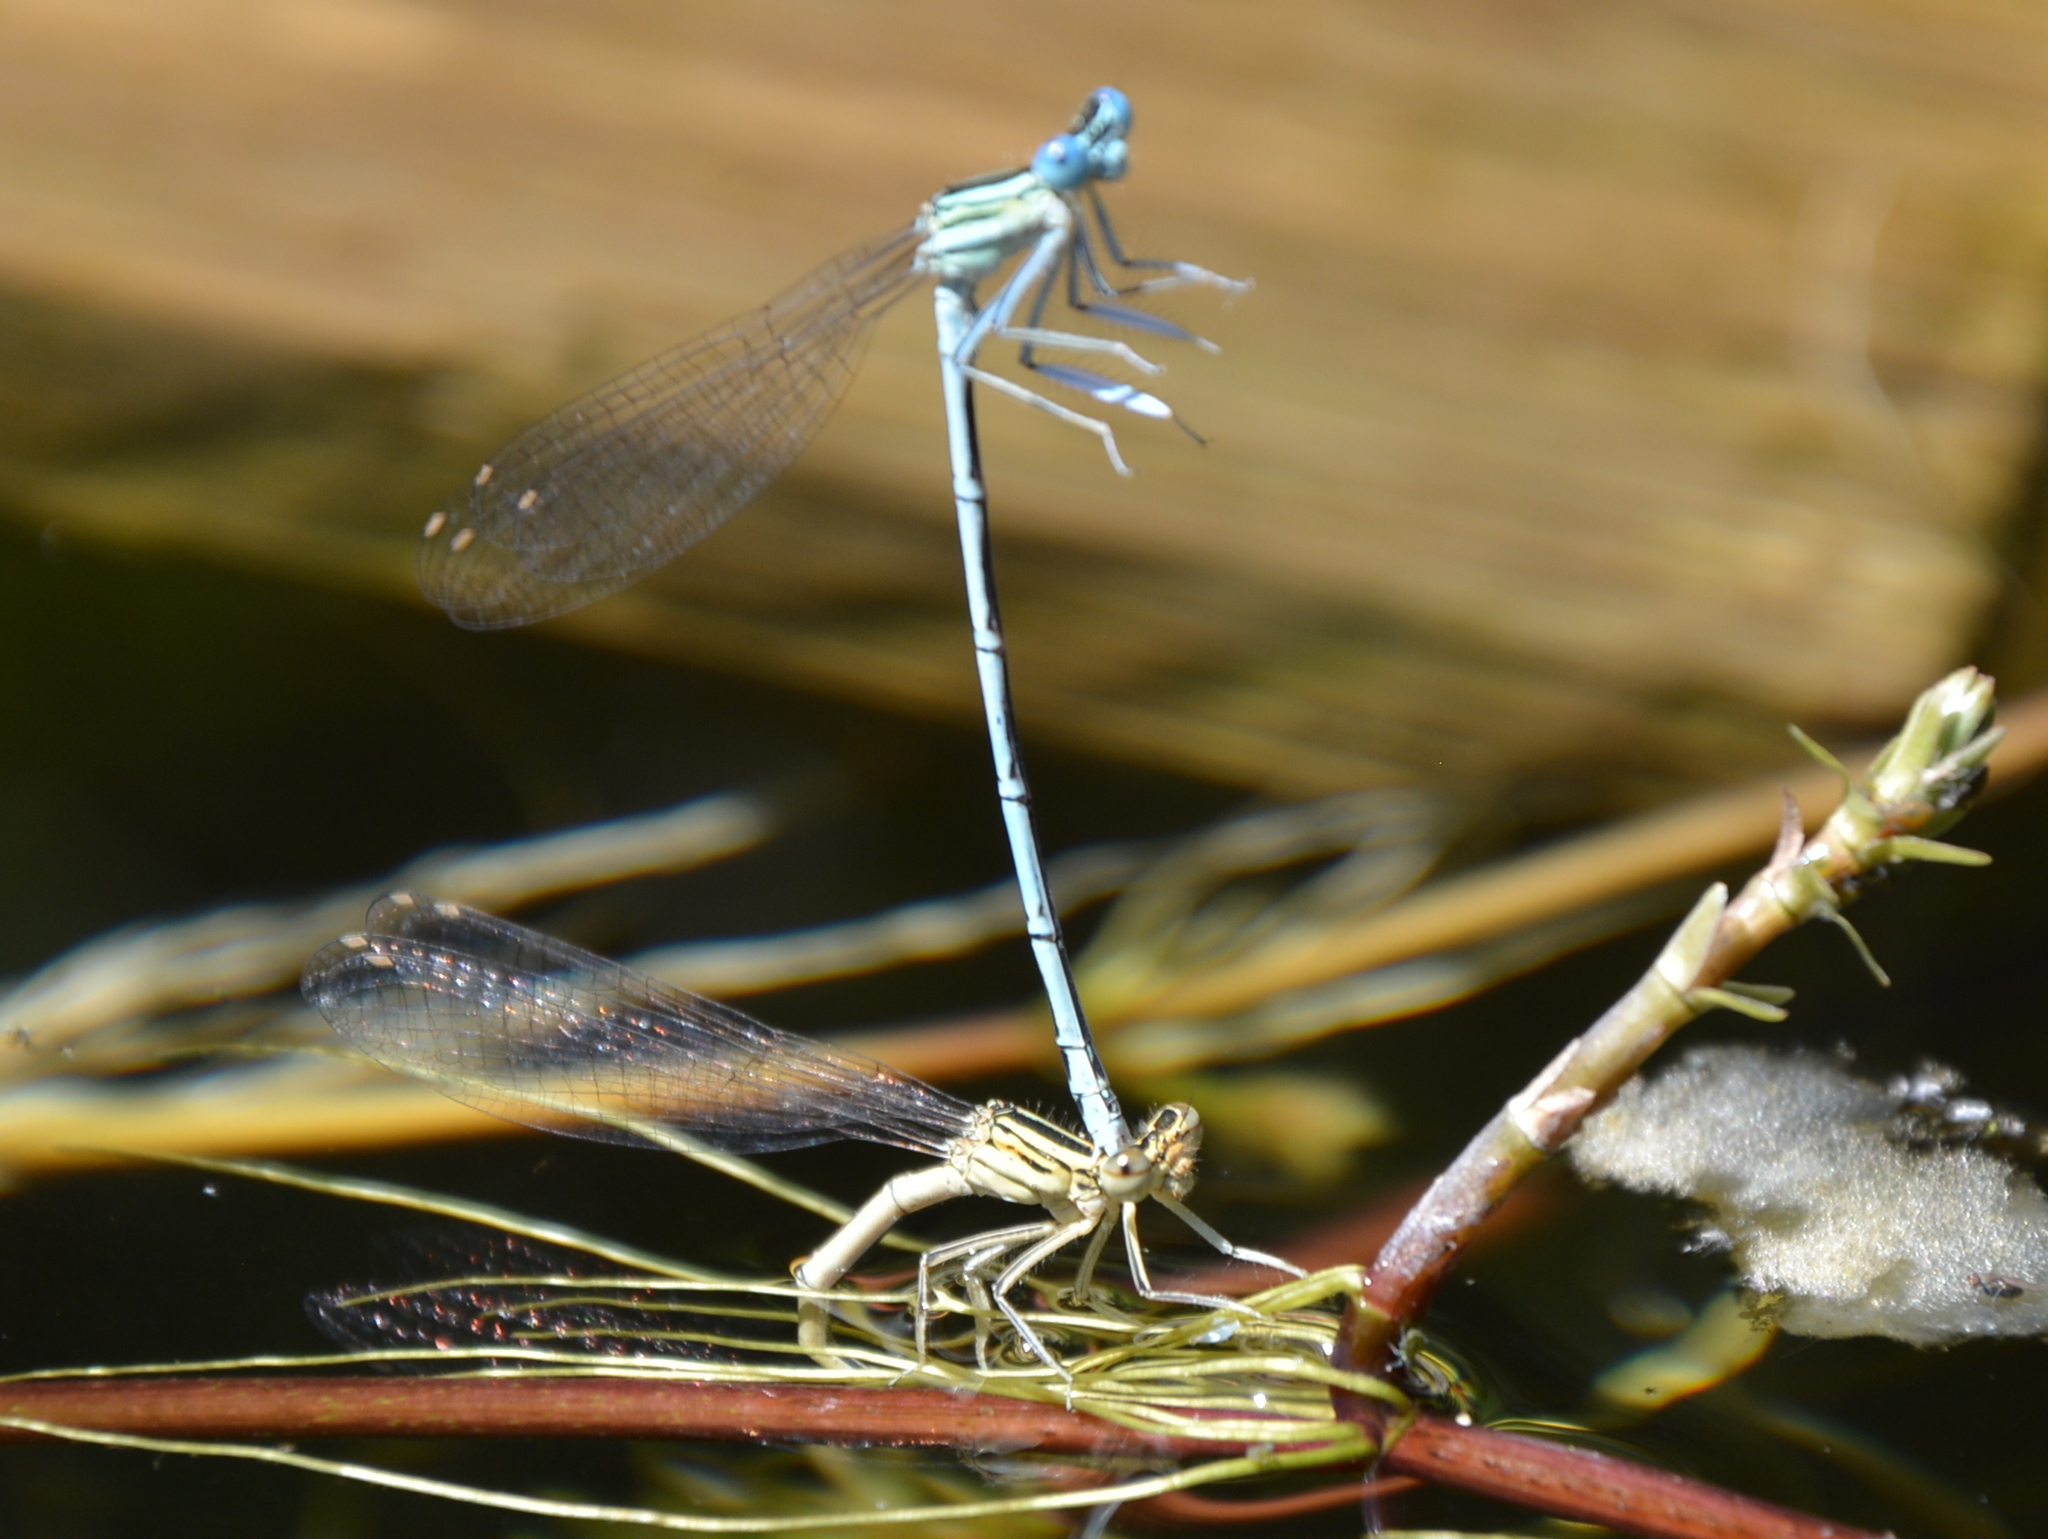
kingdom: Animalia
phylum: Arthropoda
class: Insecta
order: Odonata
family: Platycnemididae
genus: Platycnemis
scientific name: Platycnemis pennipes
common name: White-legged damselfly
